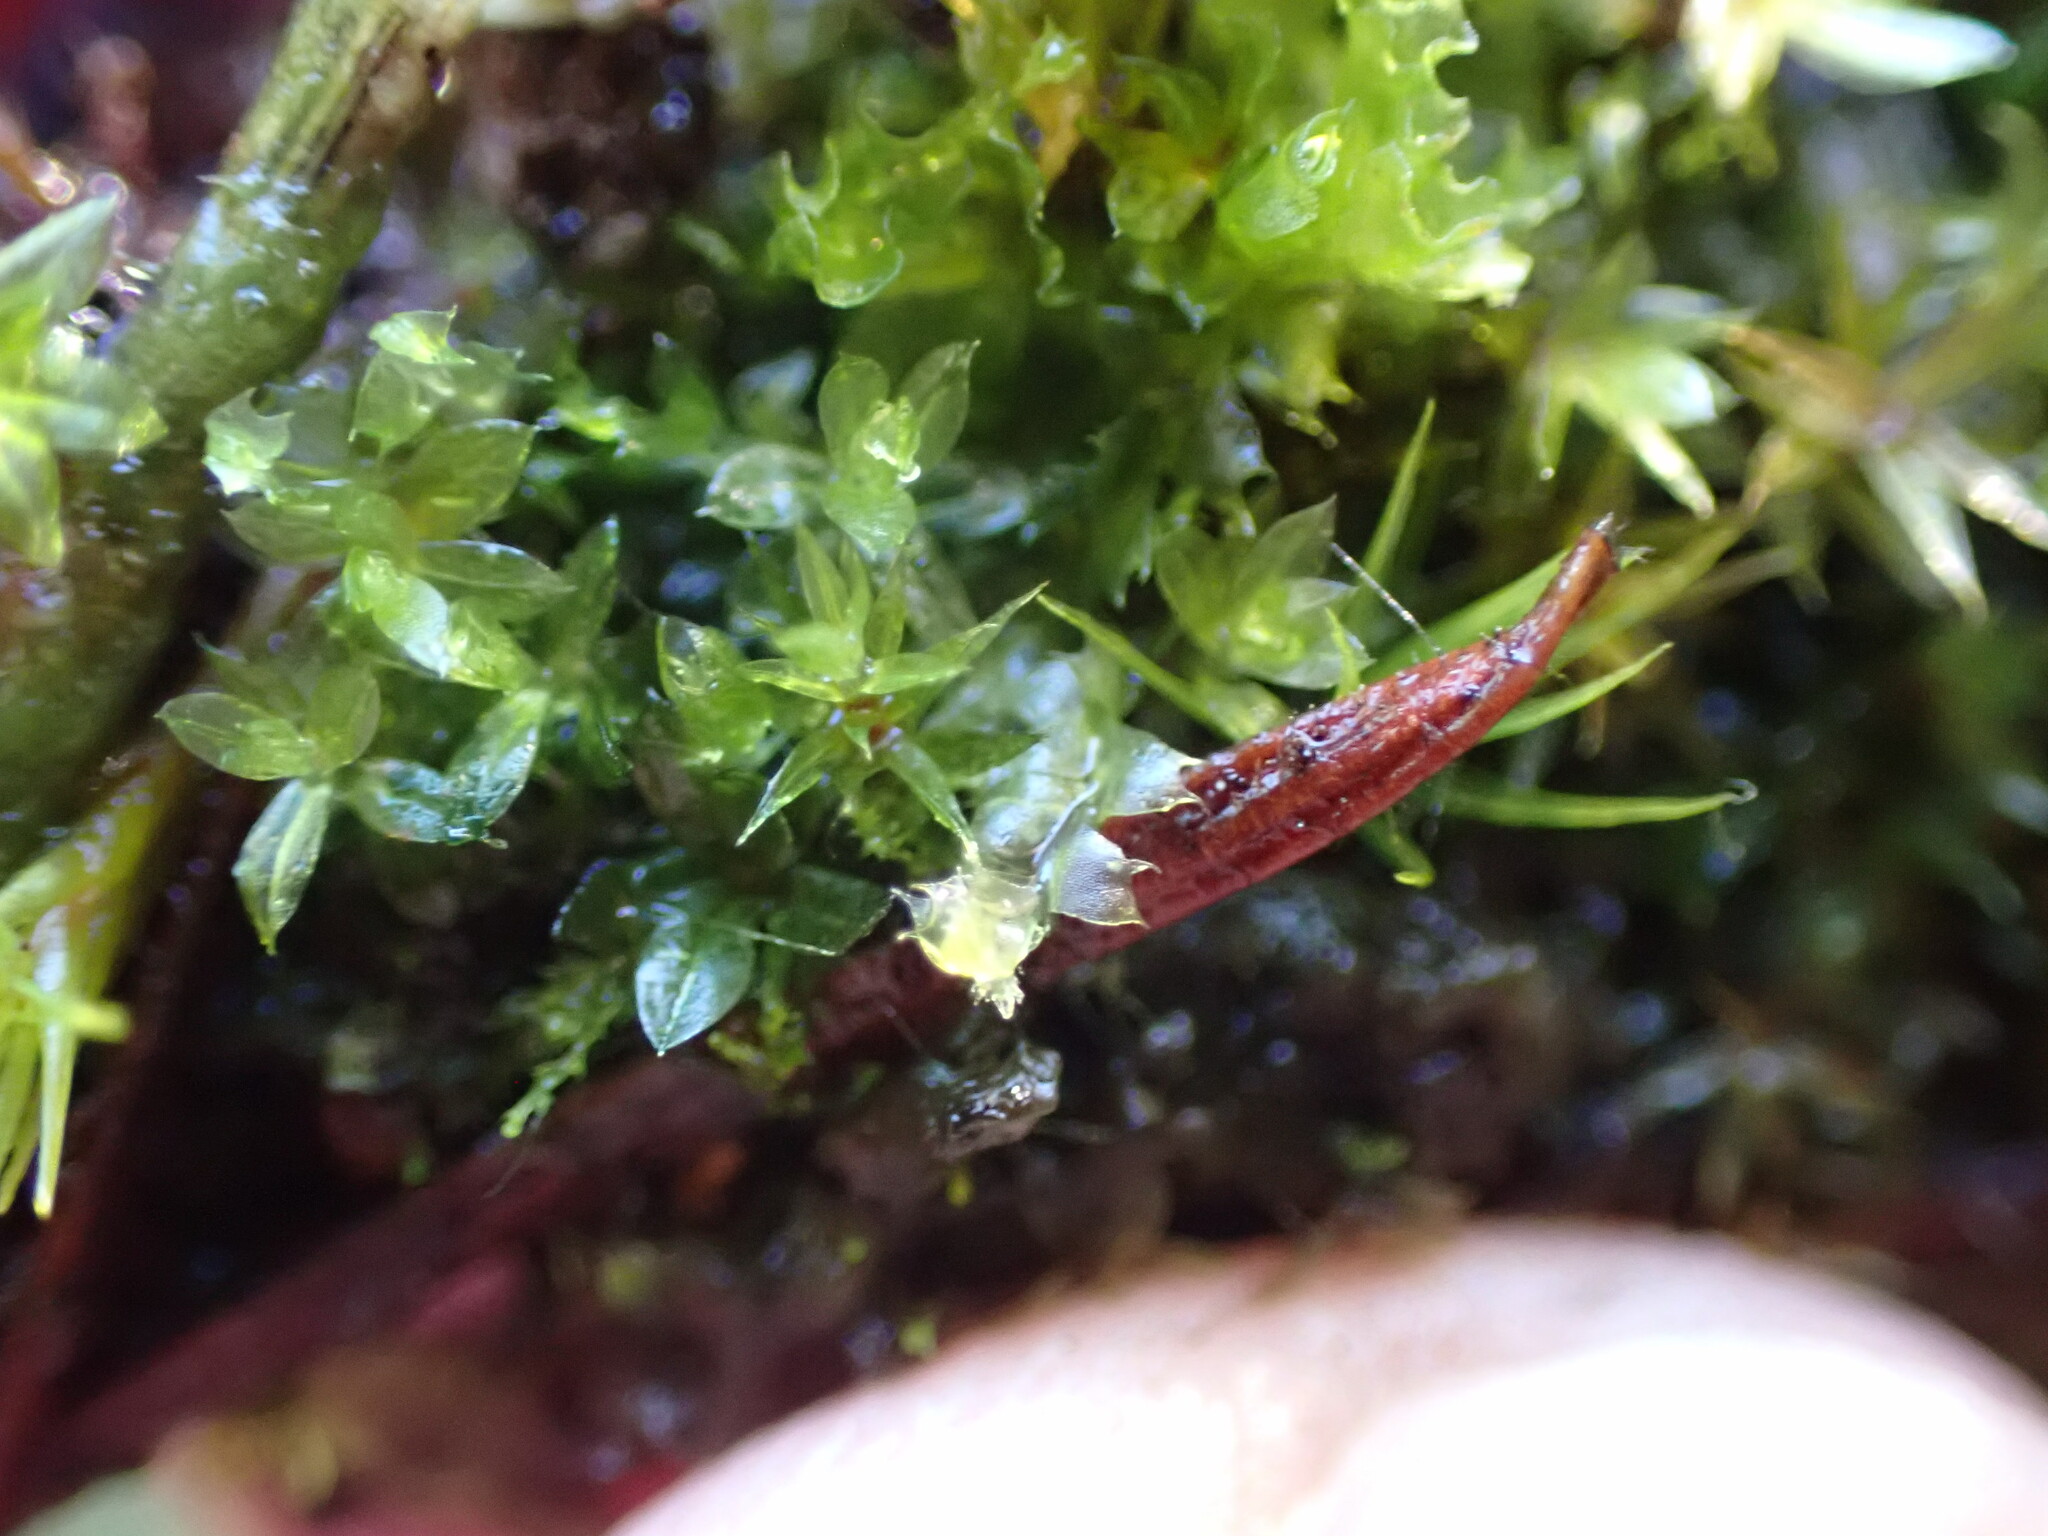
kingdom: Plantae
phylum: Marchantiophyta
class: Jungermanniopsida
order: Jungermanniales
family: Lophocoleaceae
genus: Lophocolea
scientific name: Lophocolea bidentata
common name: Bifid crestwort
